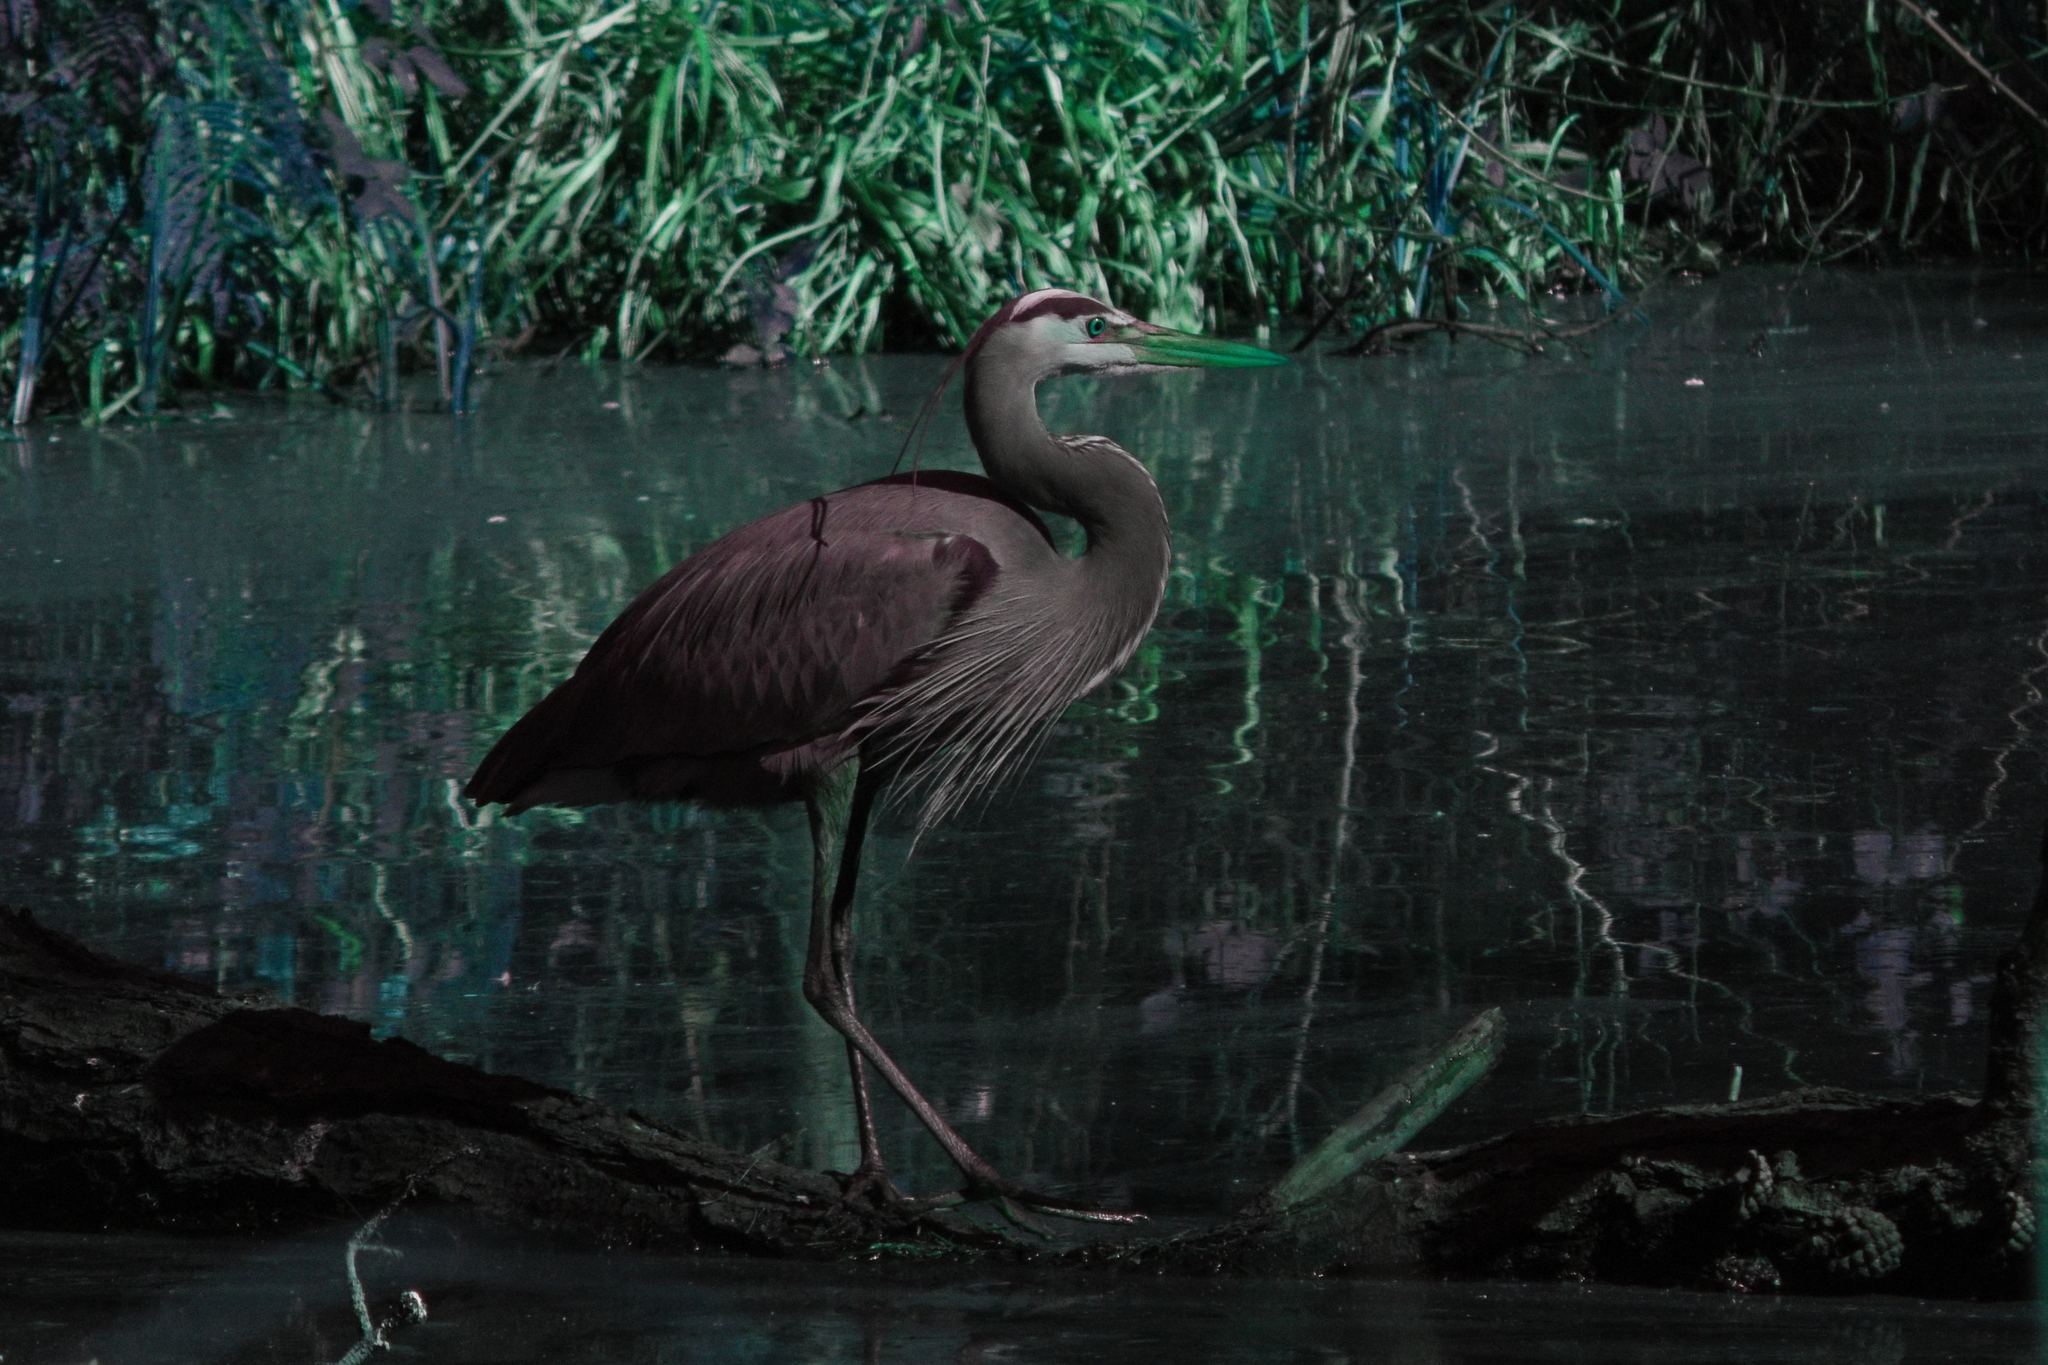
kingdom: Animalia
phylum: Chordata
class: Aves
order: Pelecaniformes
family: Ardeidae
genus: Ardea
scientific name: Ardea herodias
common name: Great blue heron
